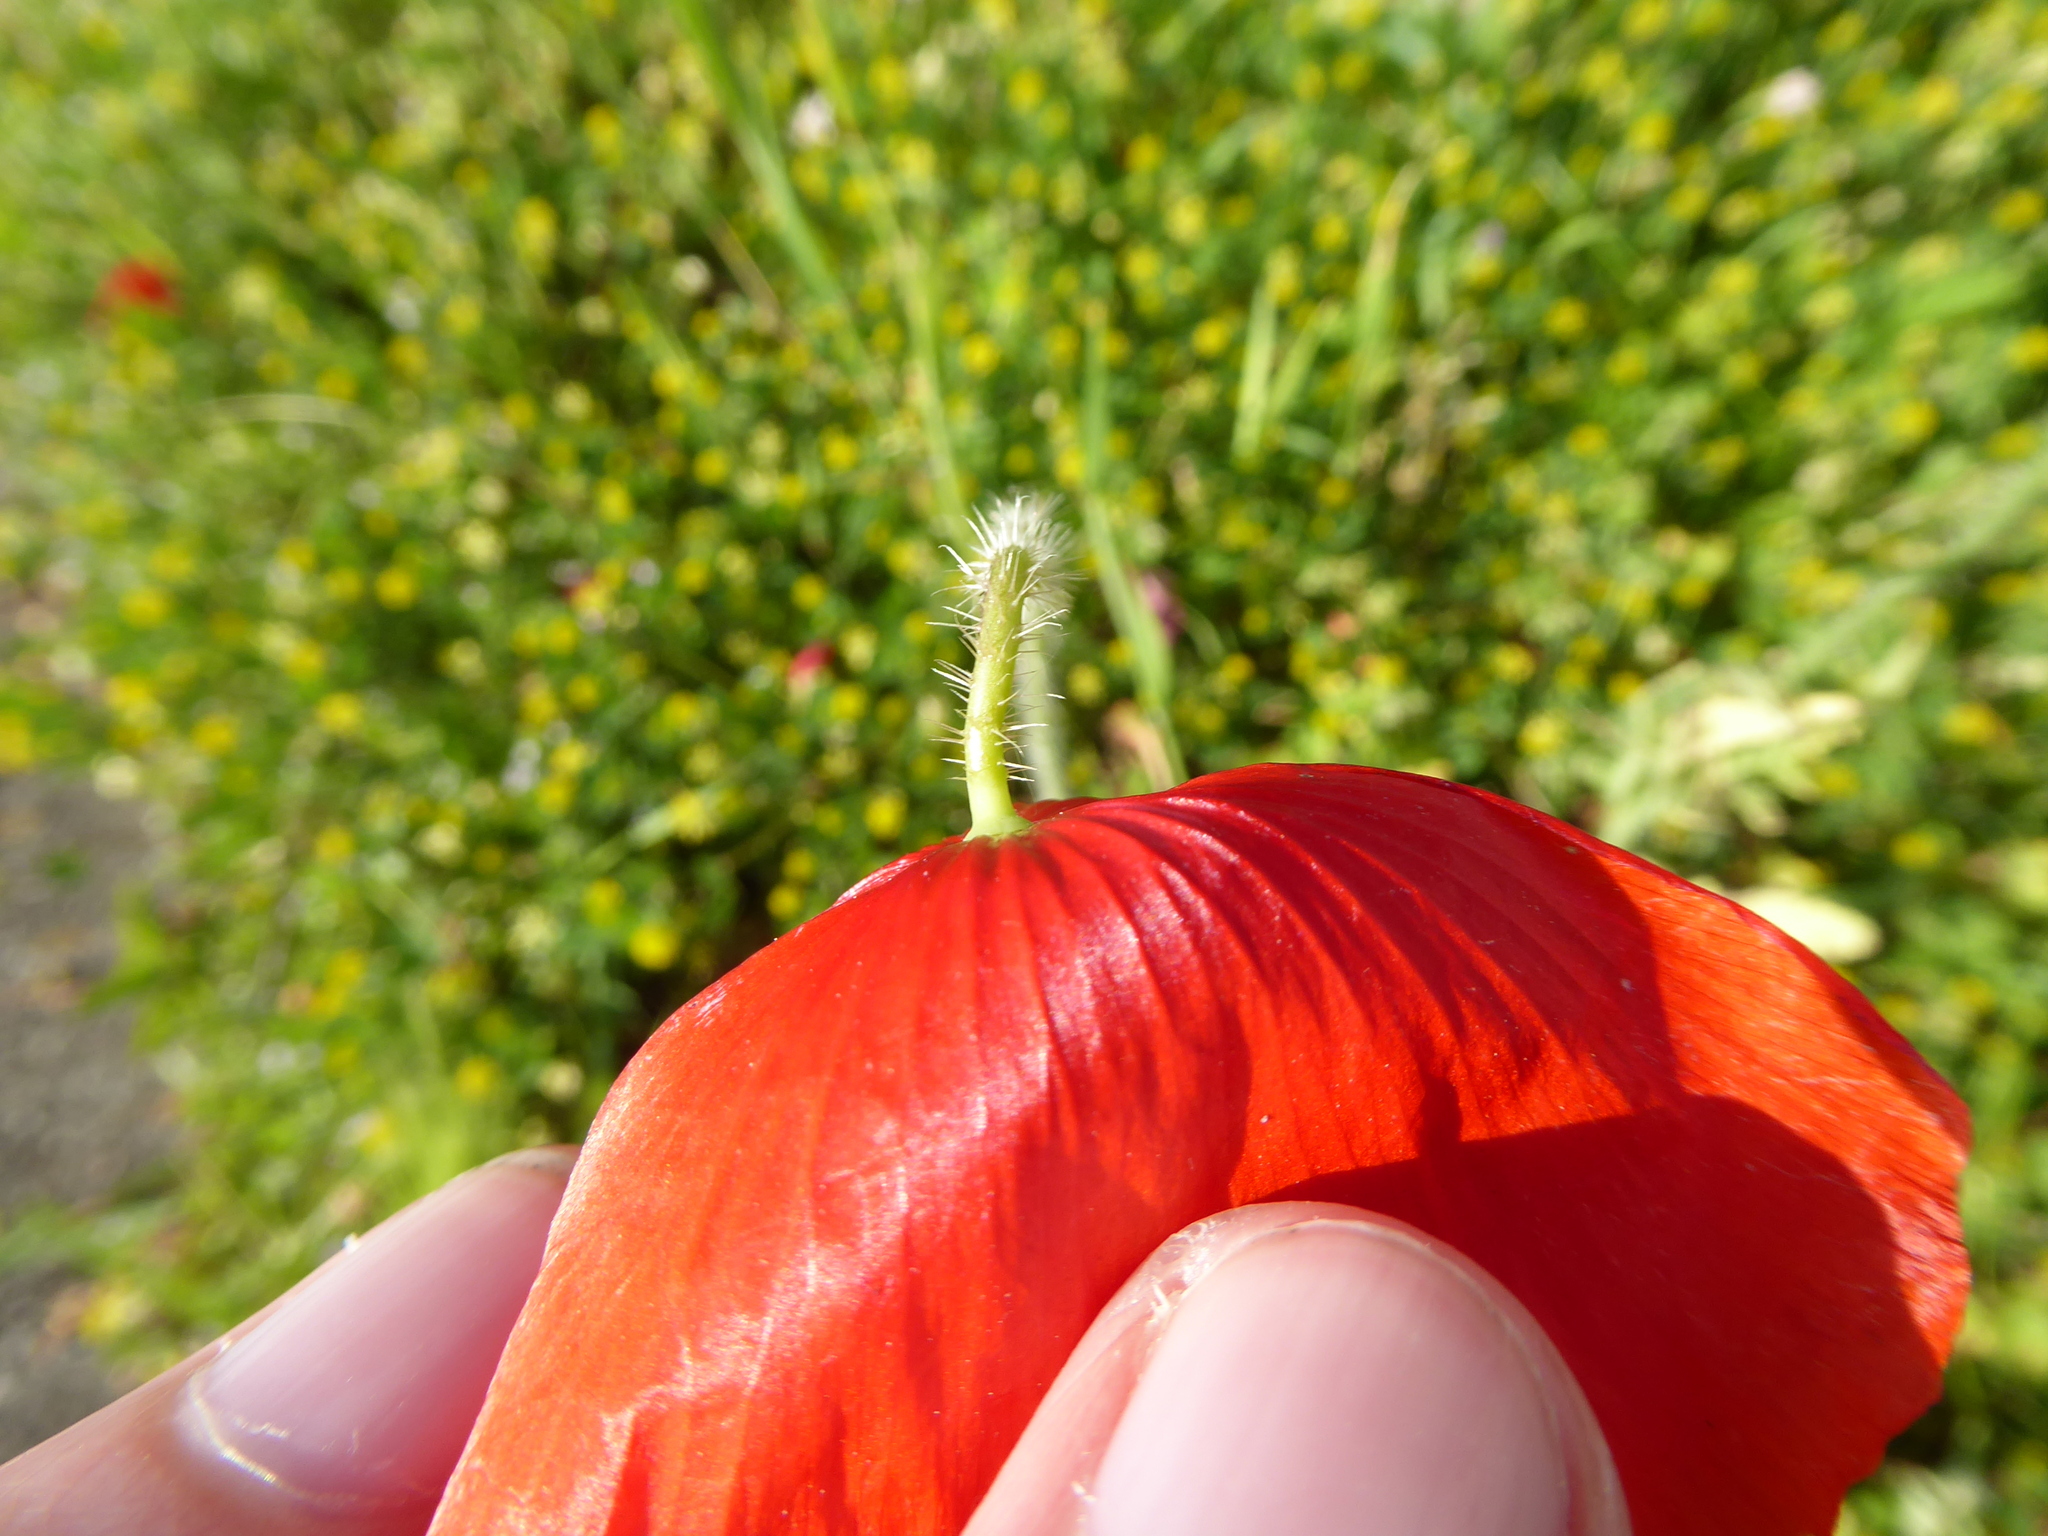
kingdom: Plantae
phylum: Tracheophyta
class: Magnoliopsida
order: Ranunculales
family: Papaveraceae
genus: Papaver
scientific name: Papaver rhoeas
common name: Corn poppy
